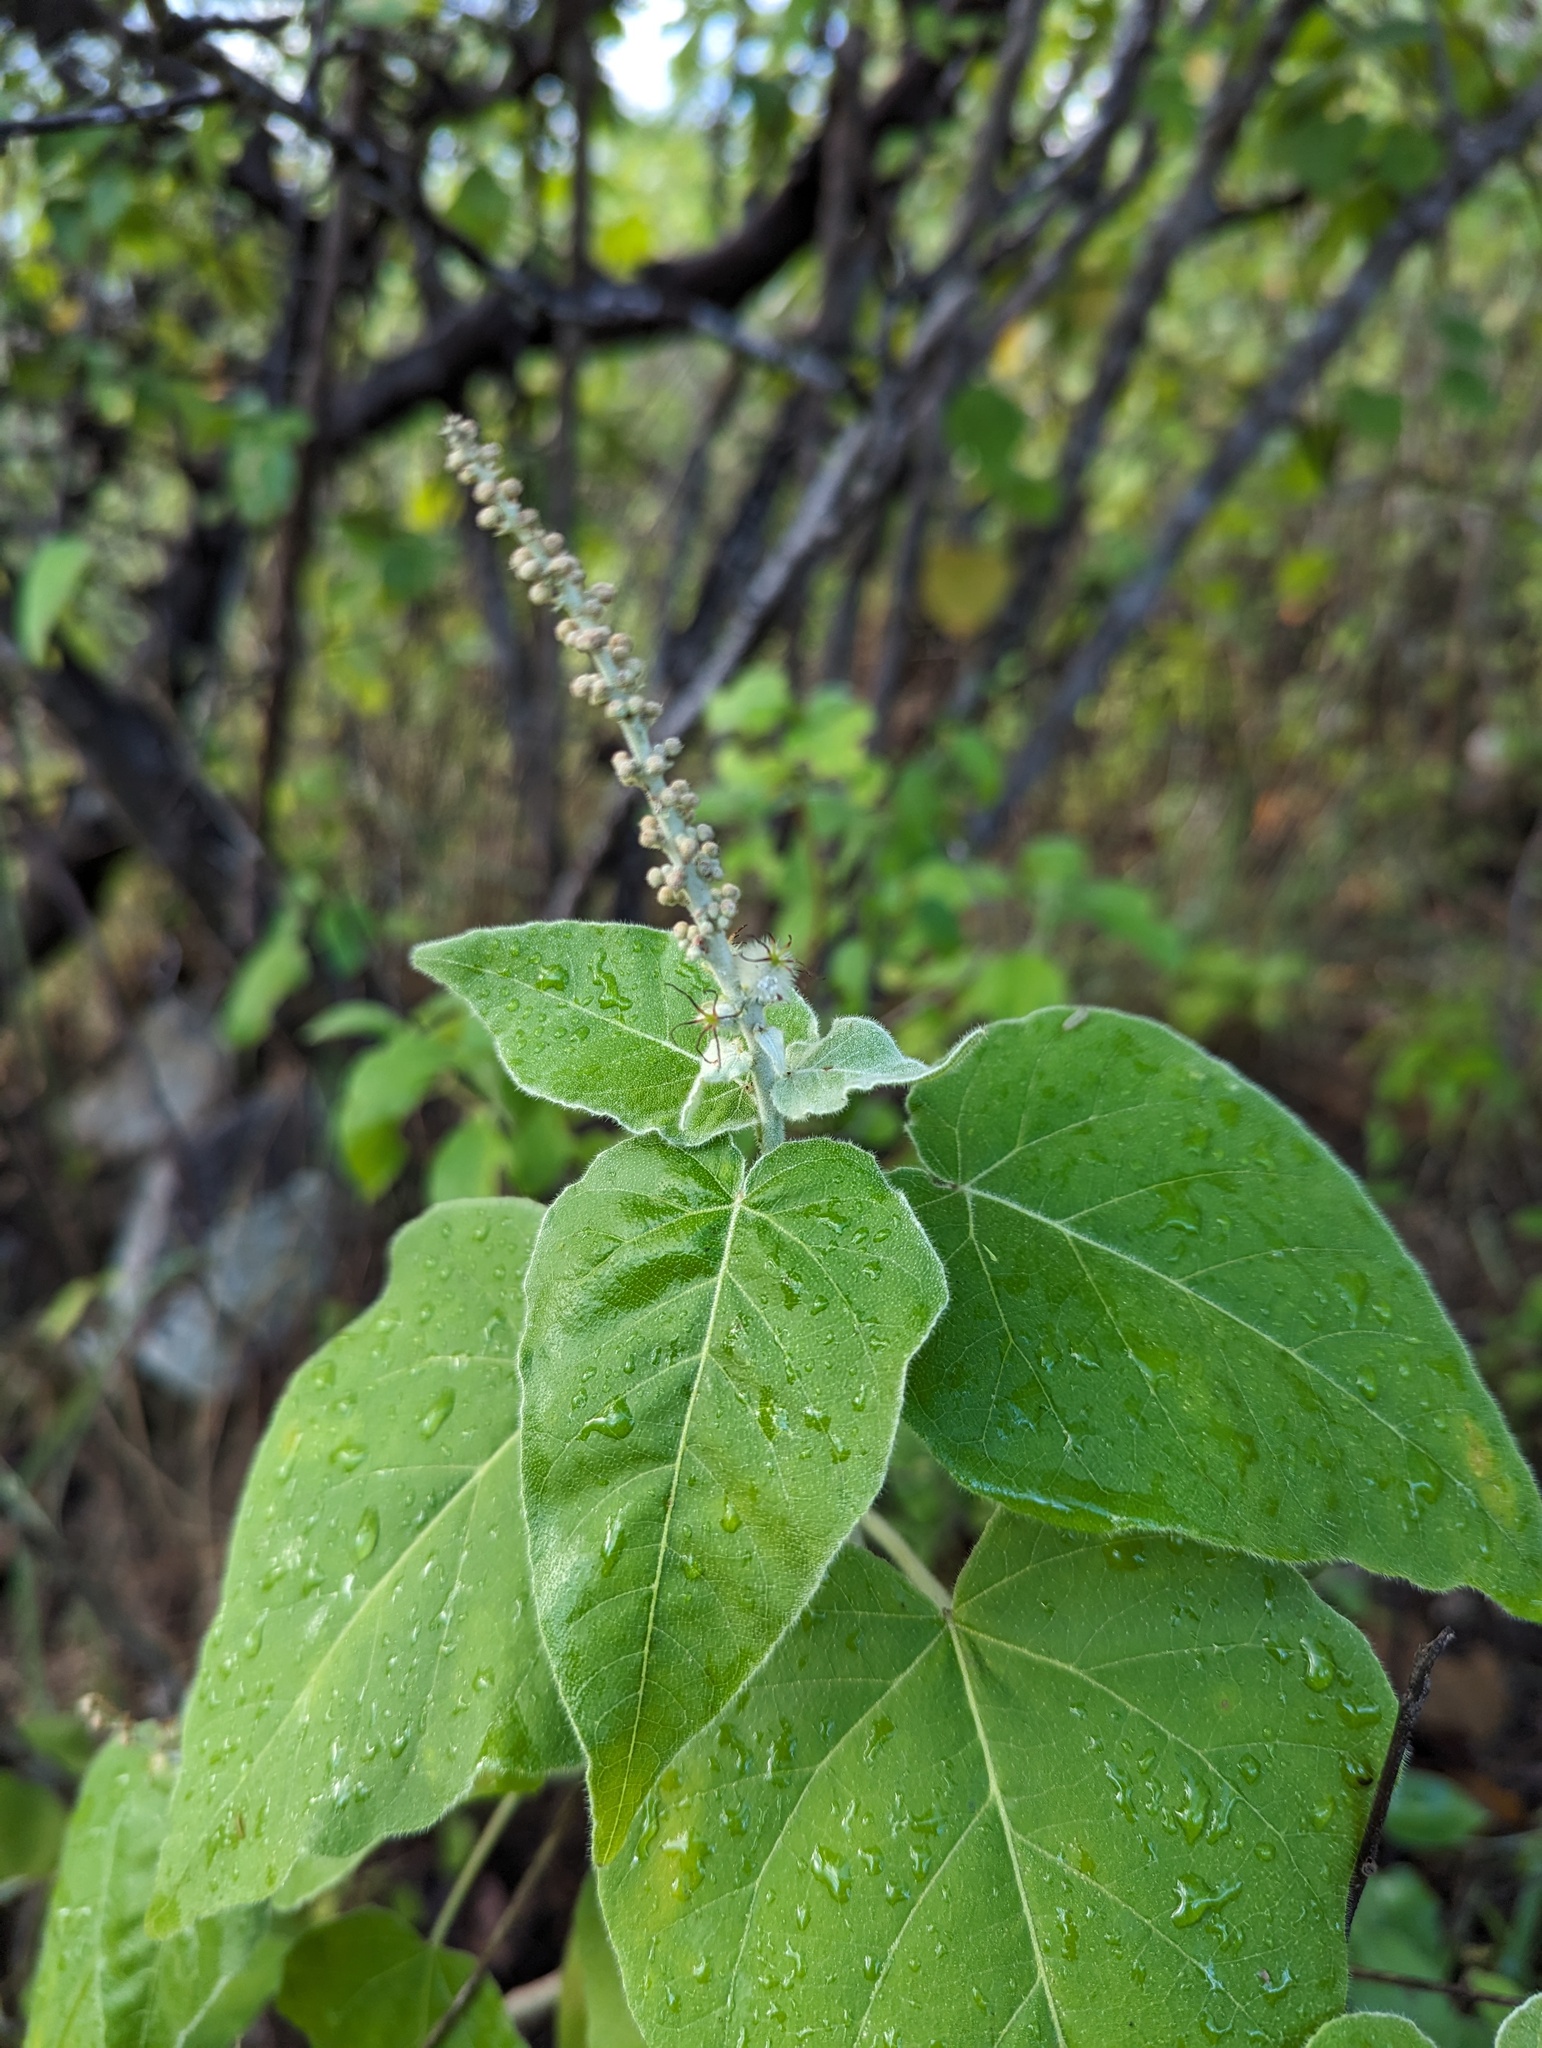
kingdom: Plantae
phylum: Tracheophyta
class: Magnoliopsida
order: Malpighiales
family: Euphorbiaceae
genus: Croton
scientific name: Croton magdalenae
